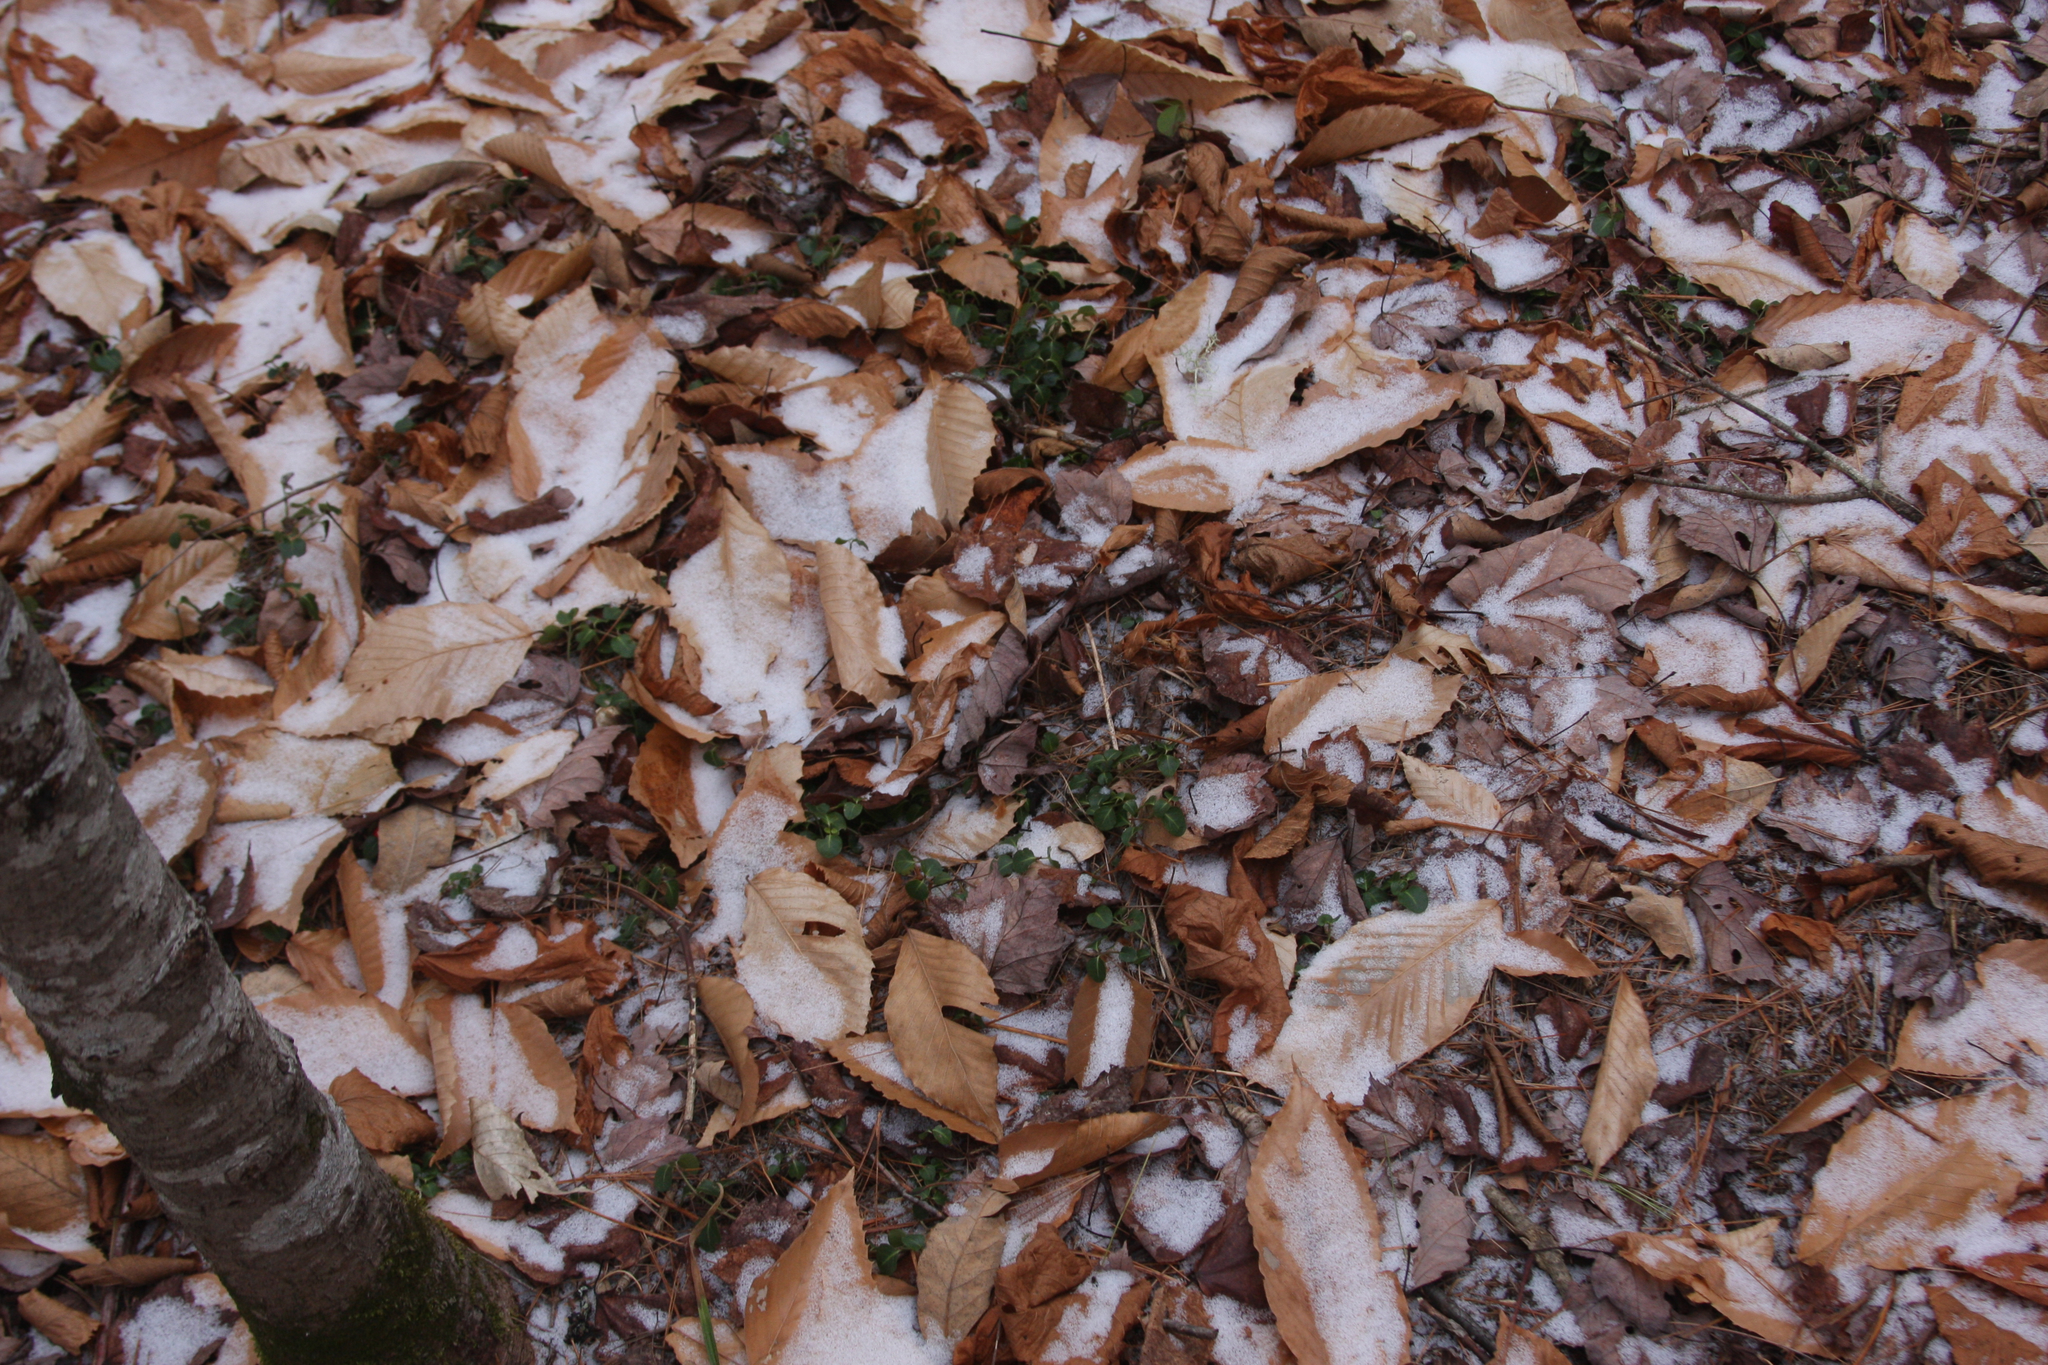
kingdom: Plantae
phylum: Tracheophyta
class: Magnoliopsida
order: Gentianales
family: Rubiaceae
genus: Mitchella
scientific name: Mitchella repens
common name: Partridge-berry
